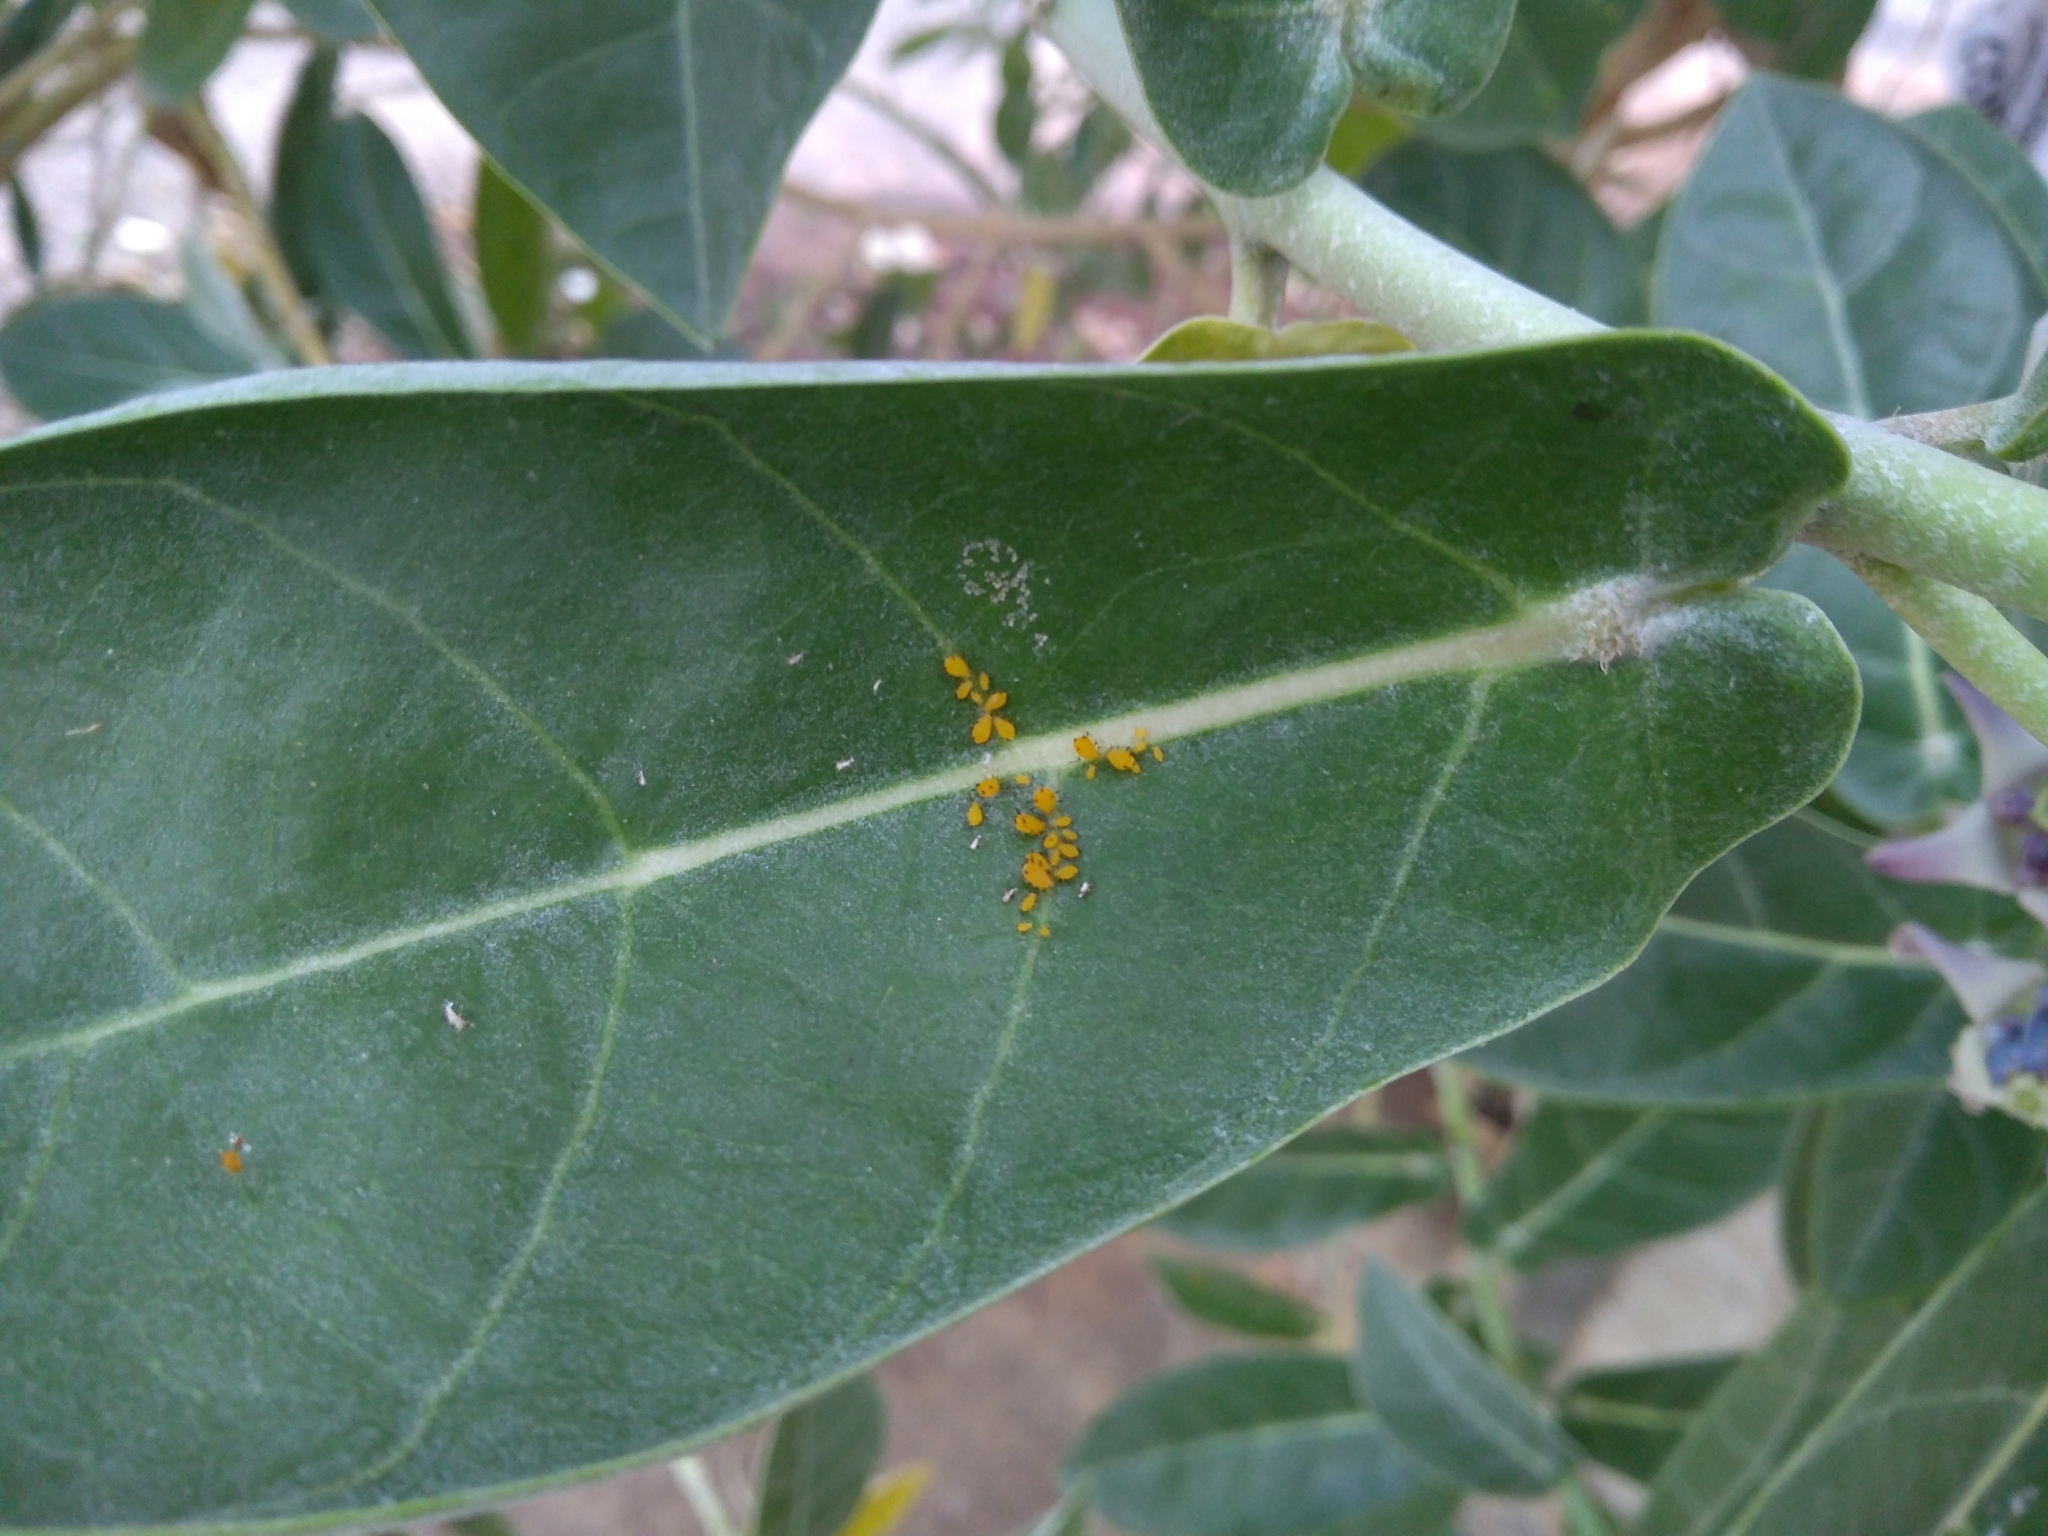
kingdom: Animalia
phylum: Arthropoda
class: Insecta
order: Hemiptera
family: Aphididae
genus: Aphis
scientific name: Aphis nerii
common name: Oleander aphid
